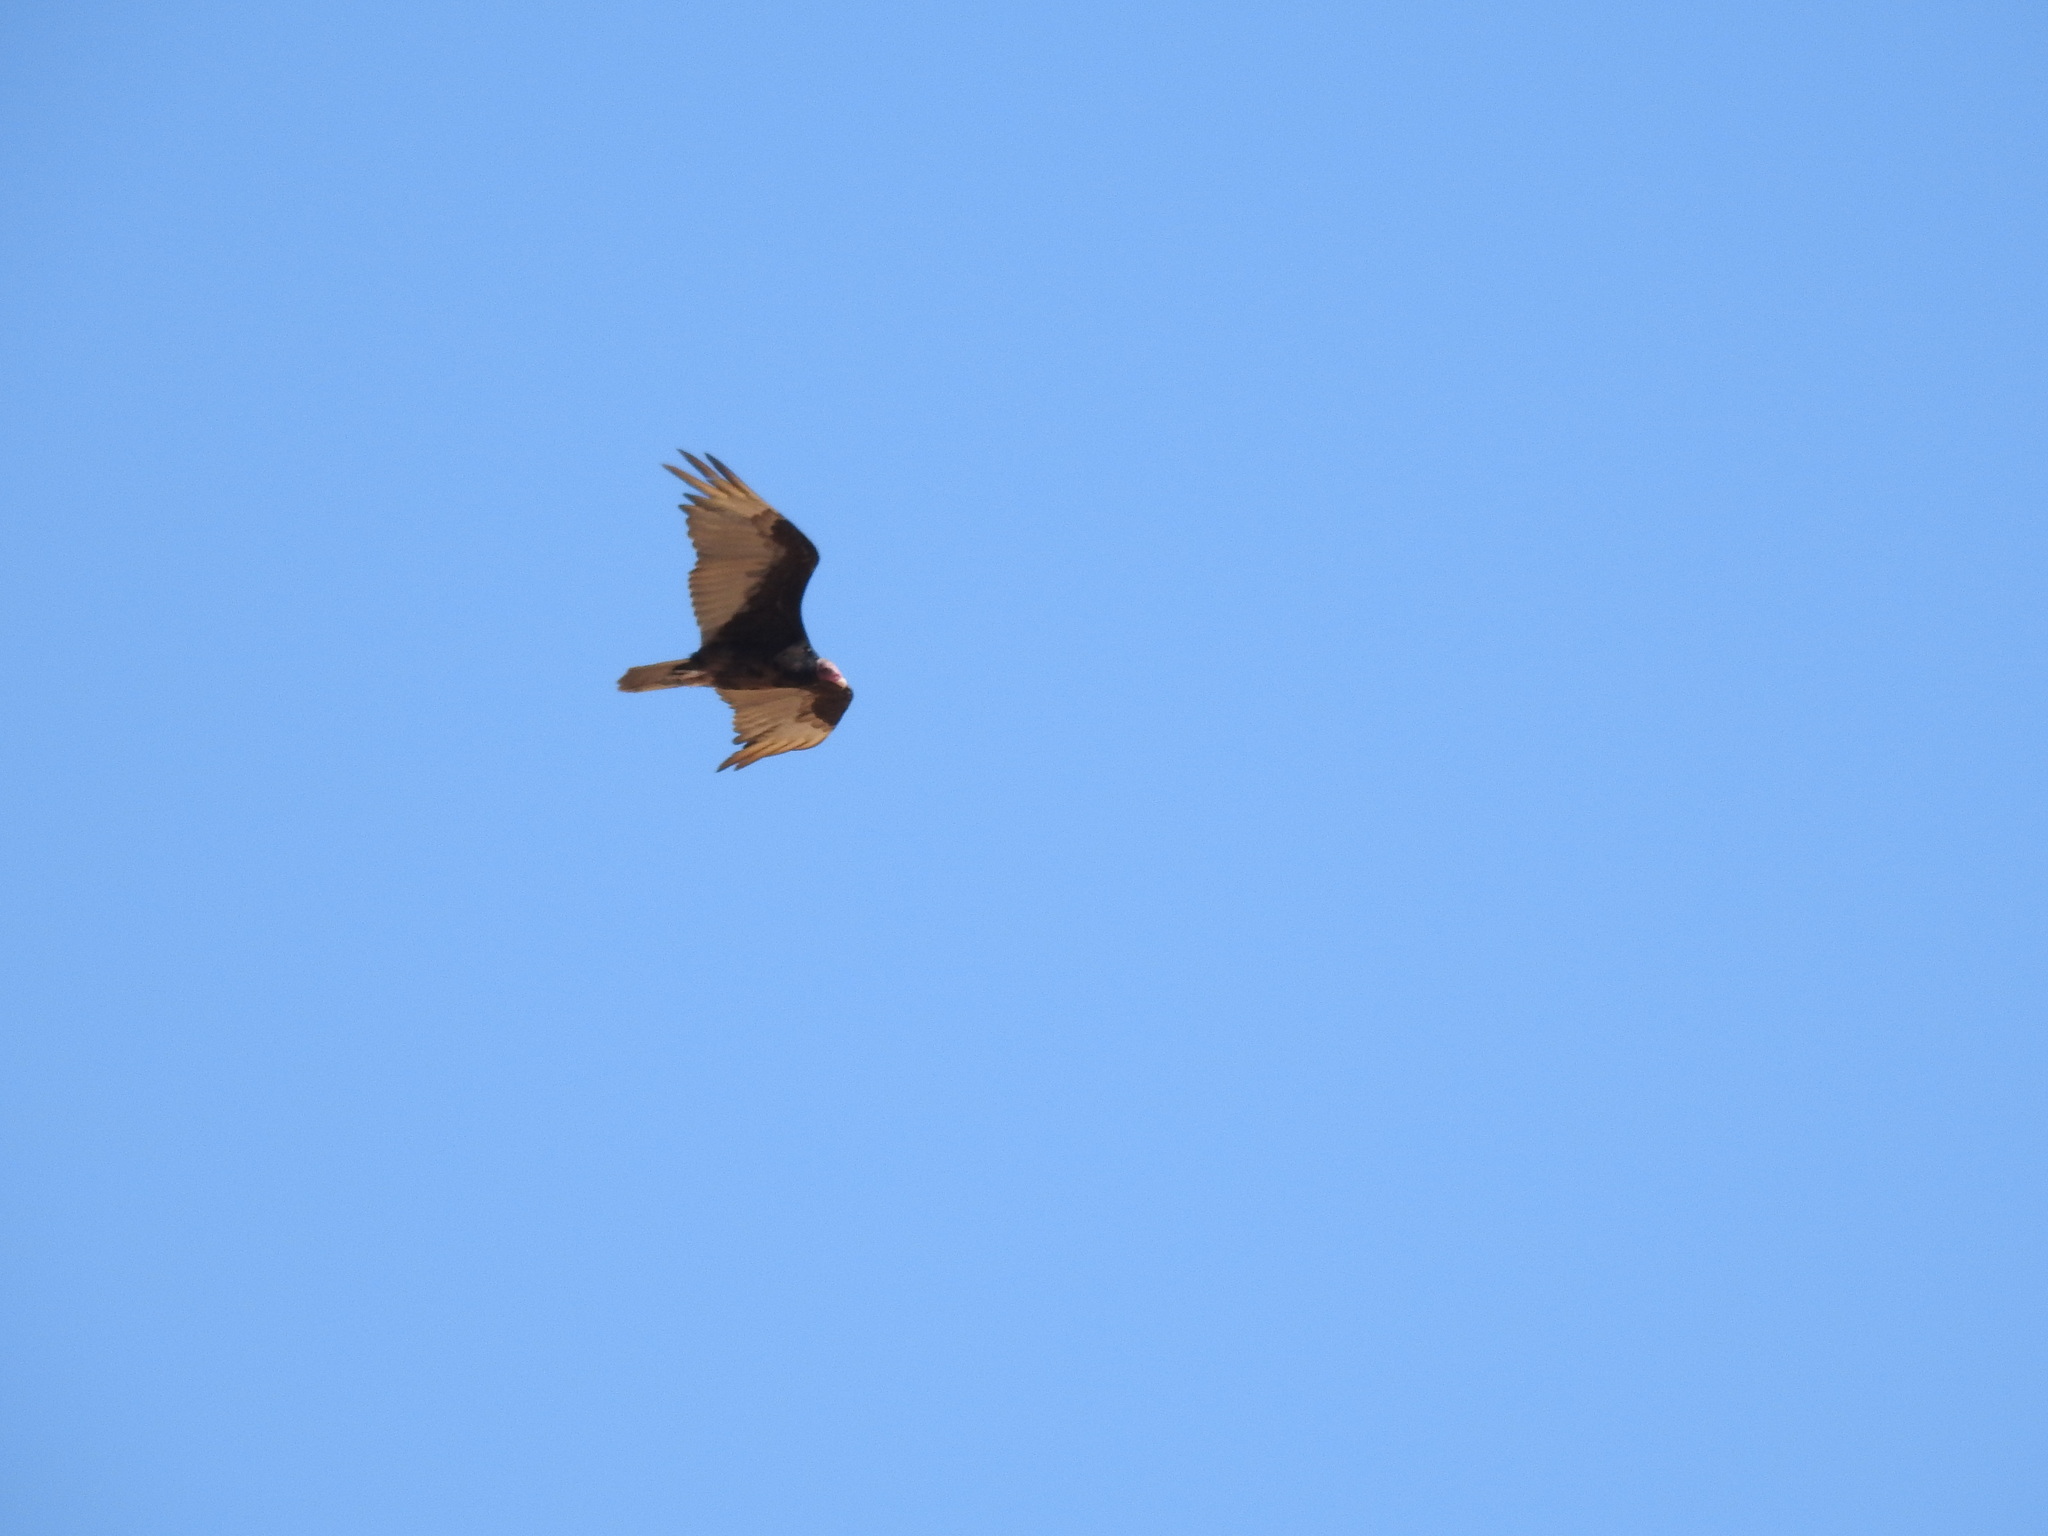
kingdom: Animalia
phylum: Chordata
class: Aves
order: Accipitriformes
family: Cathartidae
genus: Cathartes
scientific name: Cathartes aura
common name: Turkey vulture
